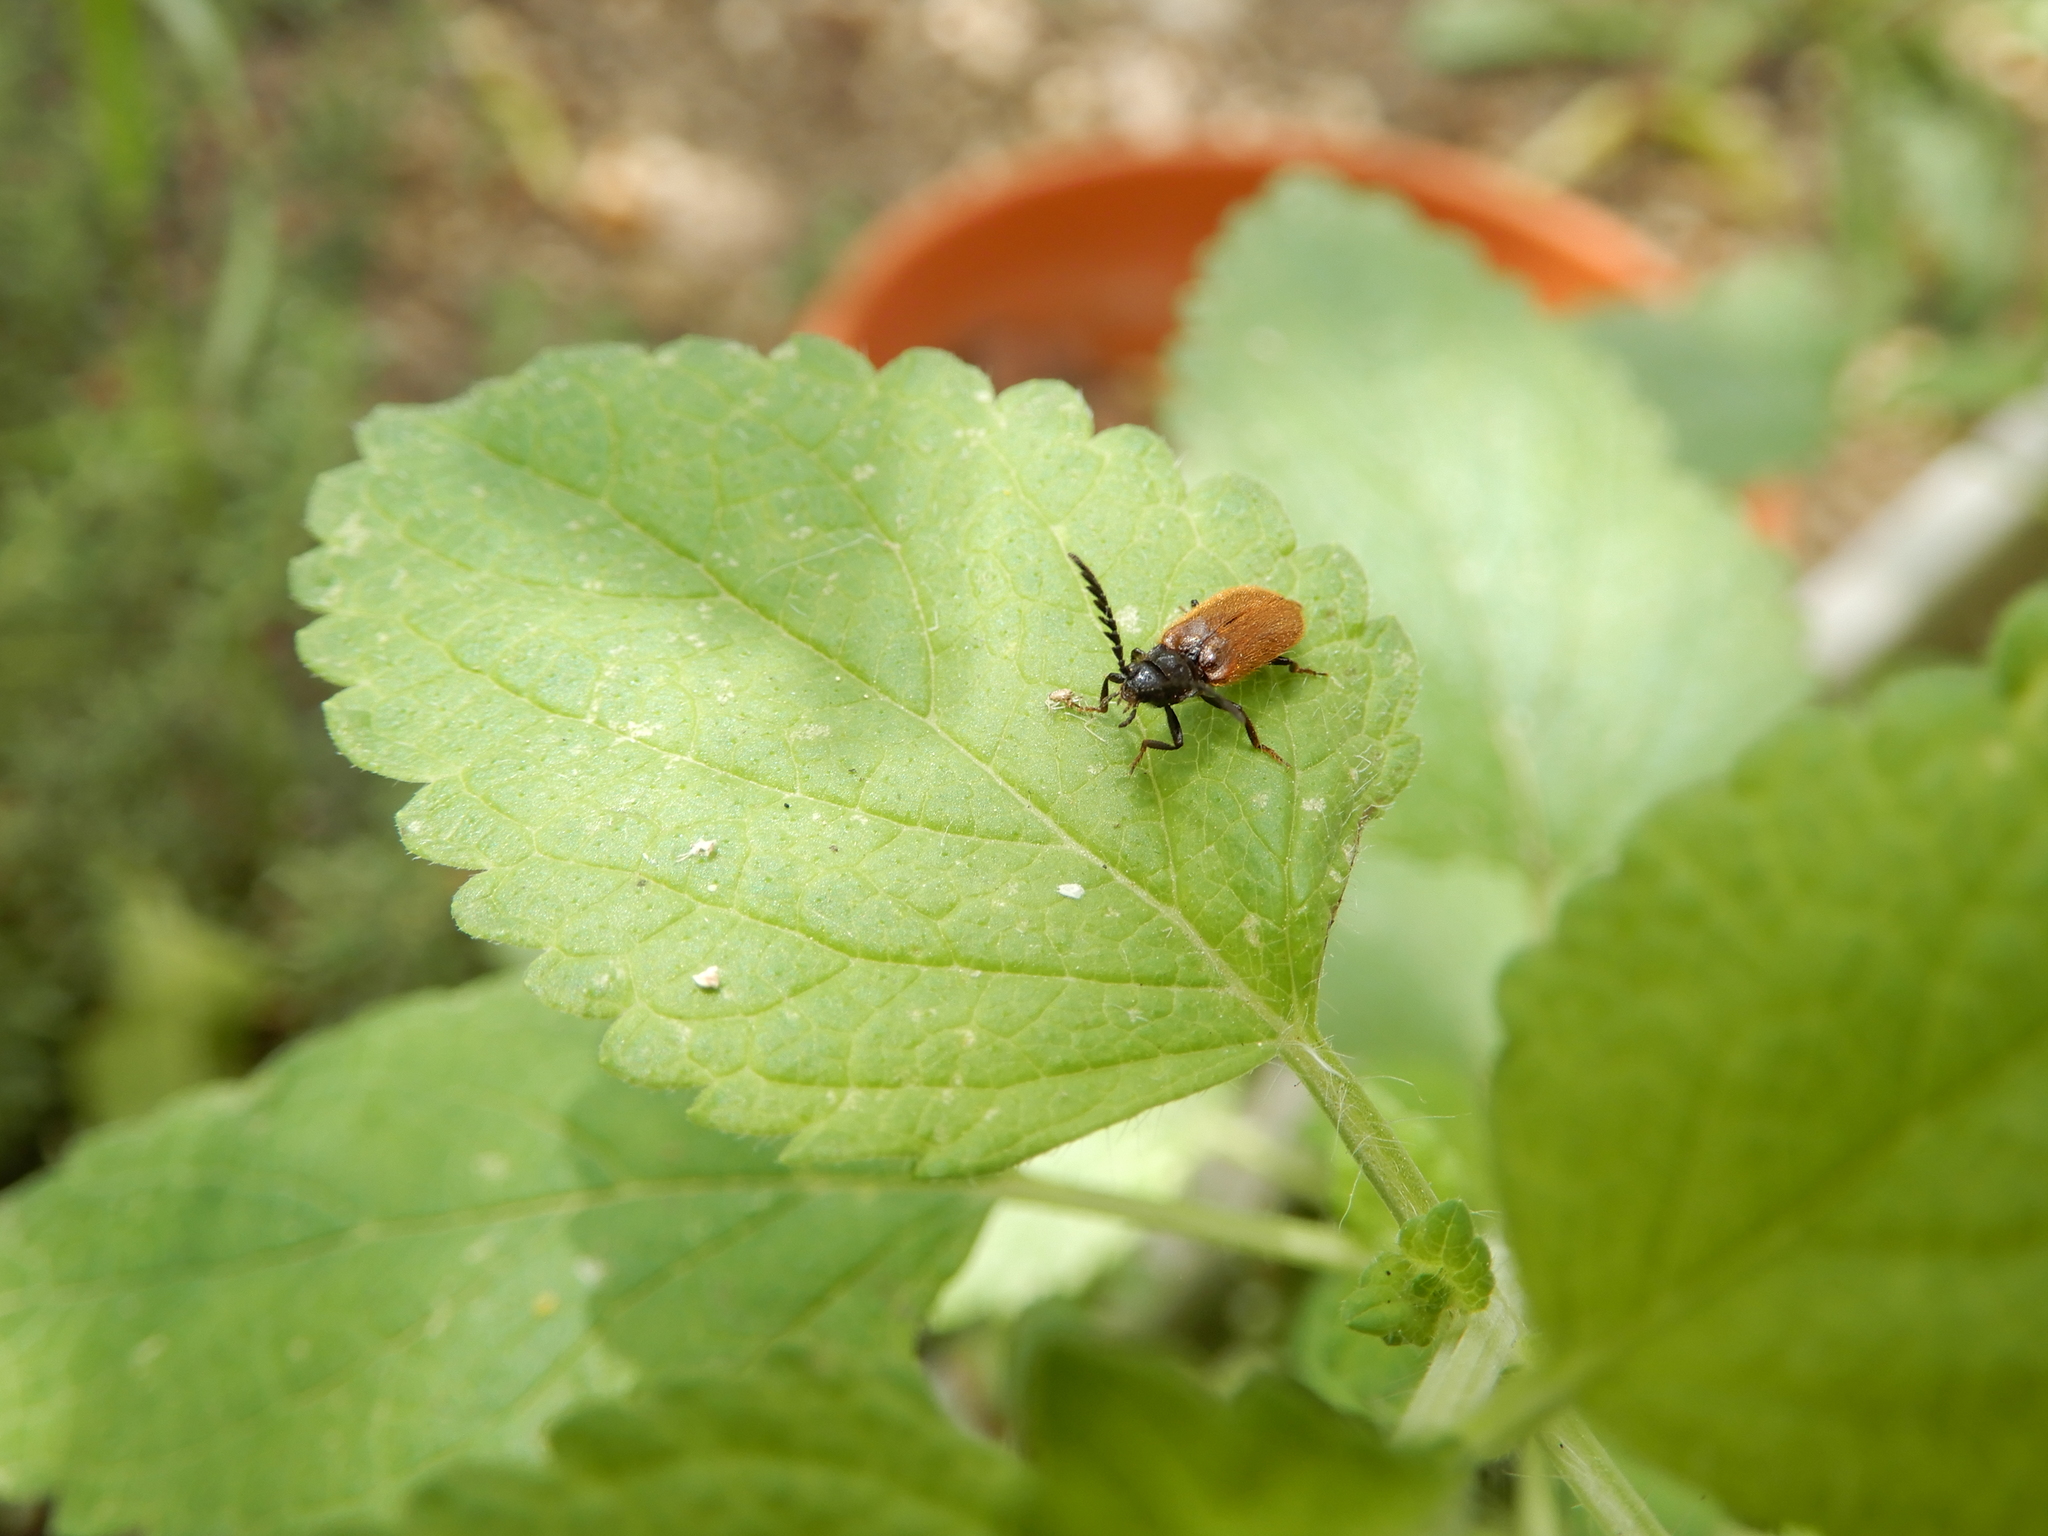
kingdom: Animalia
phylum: Arthropoda
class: Insecta
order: Coleoptera
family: Drilidae
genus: Drilus
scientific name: Drilus flavescens
